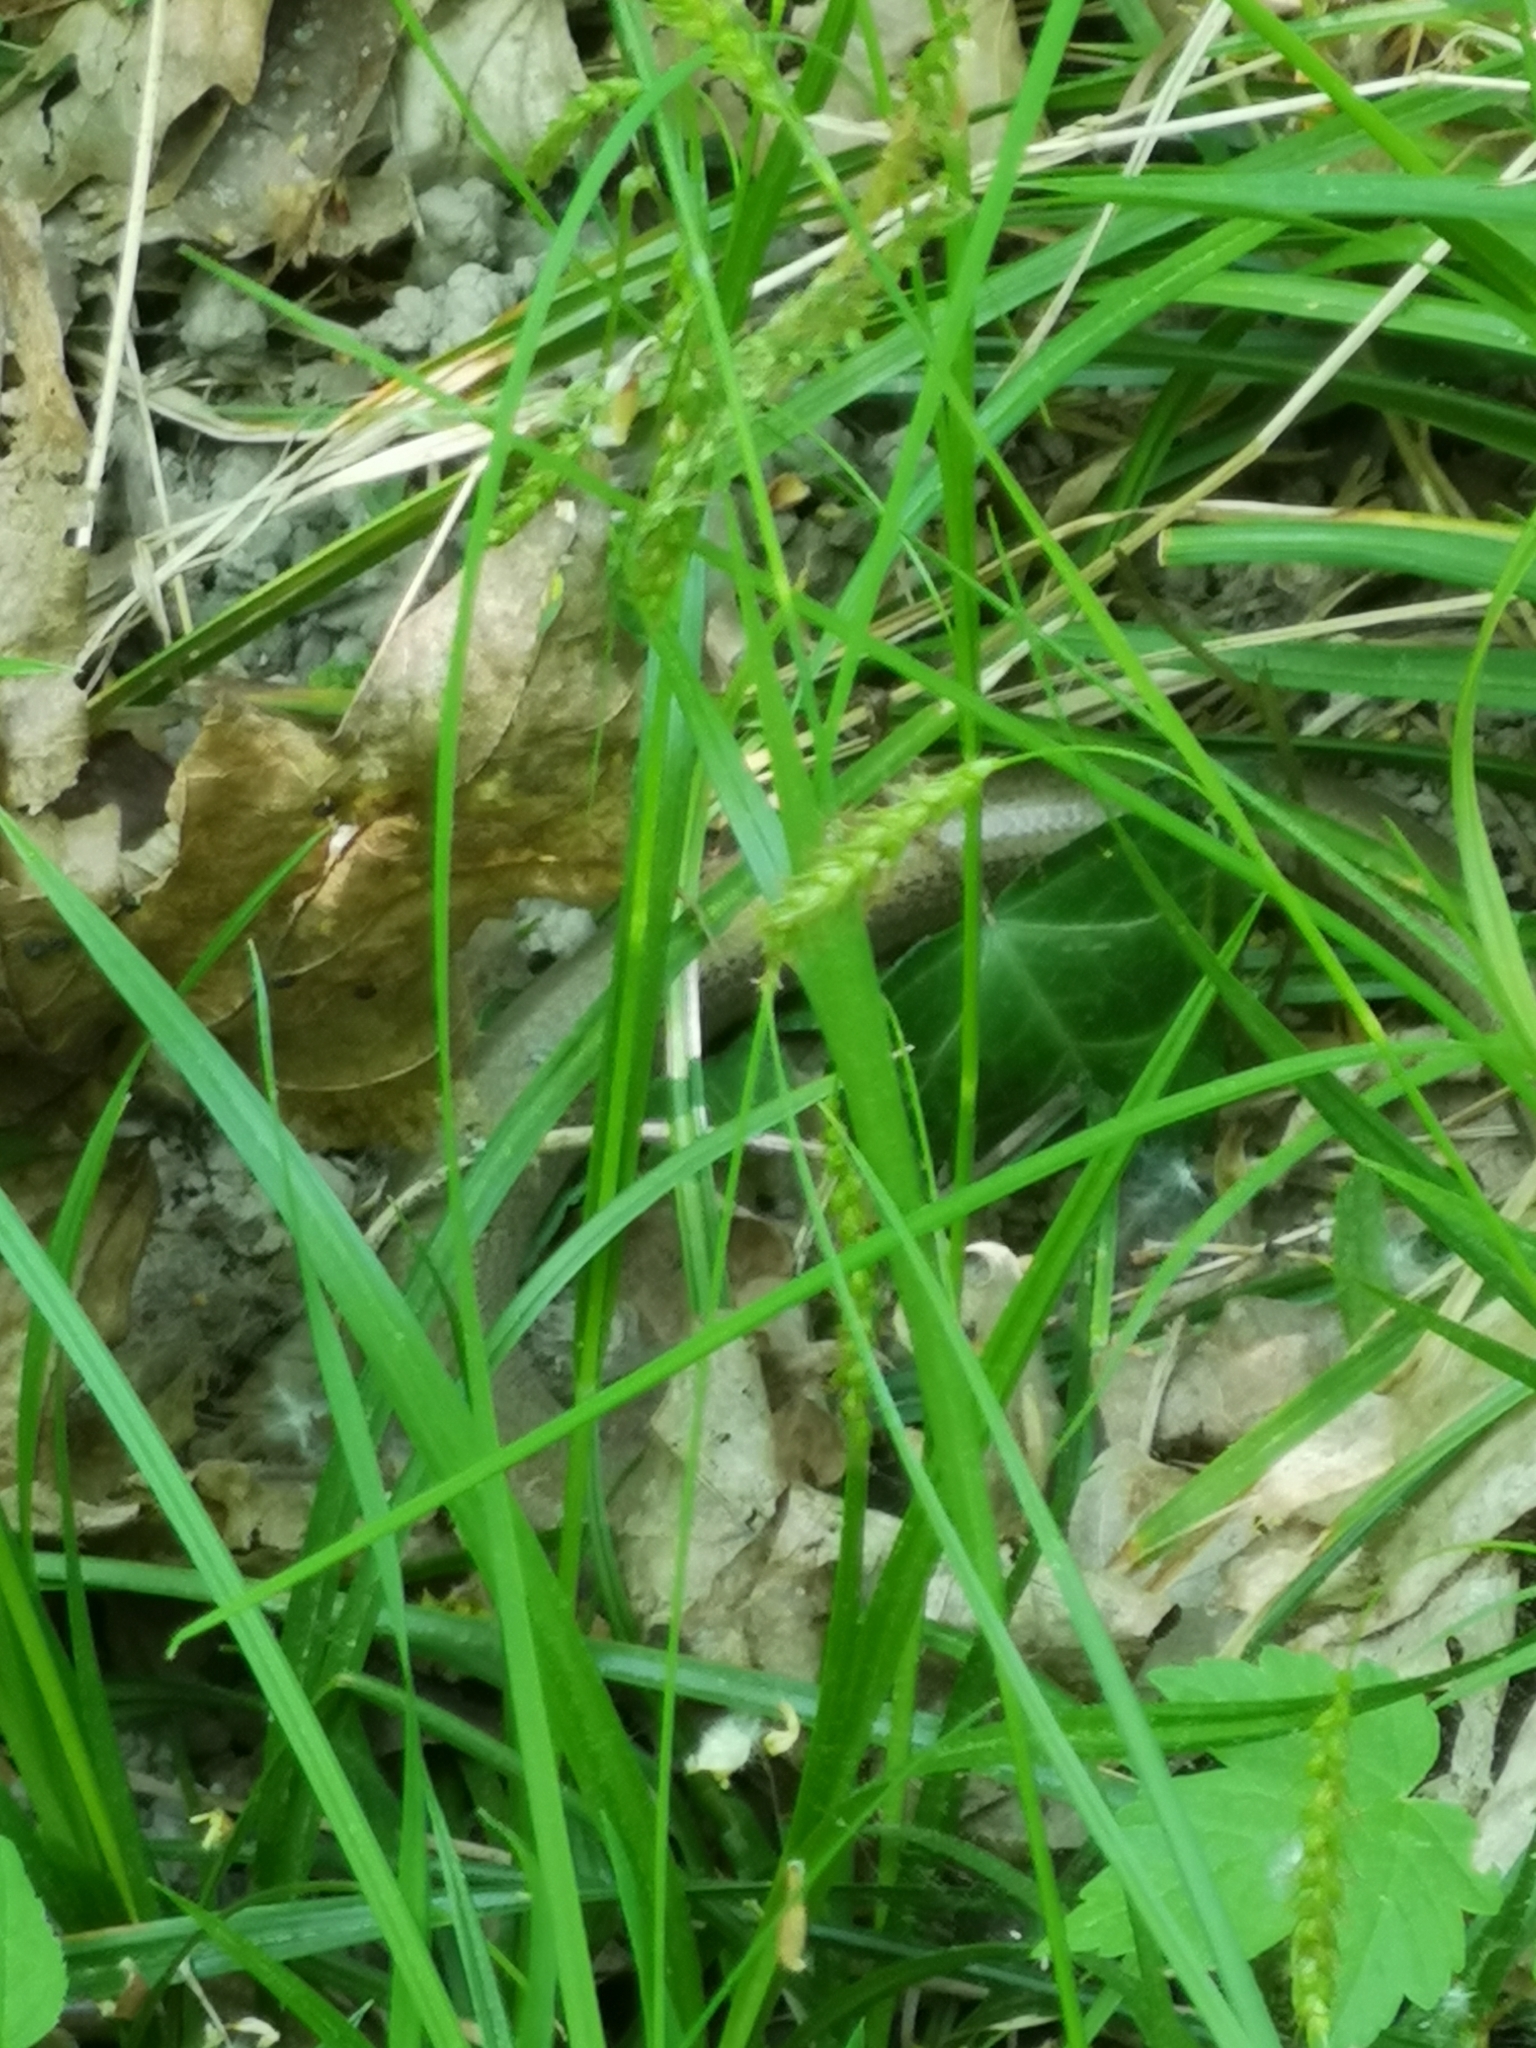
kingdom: Animalia
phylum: Chordata
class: Squamata
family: Anguidae
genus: Anguis
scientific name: Anguis fragilis
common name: Slow worm
